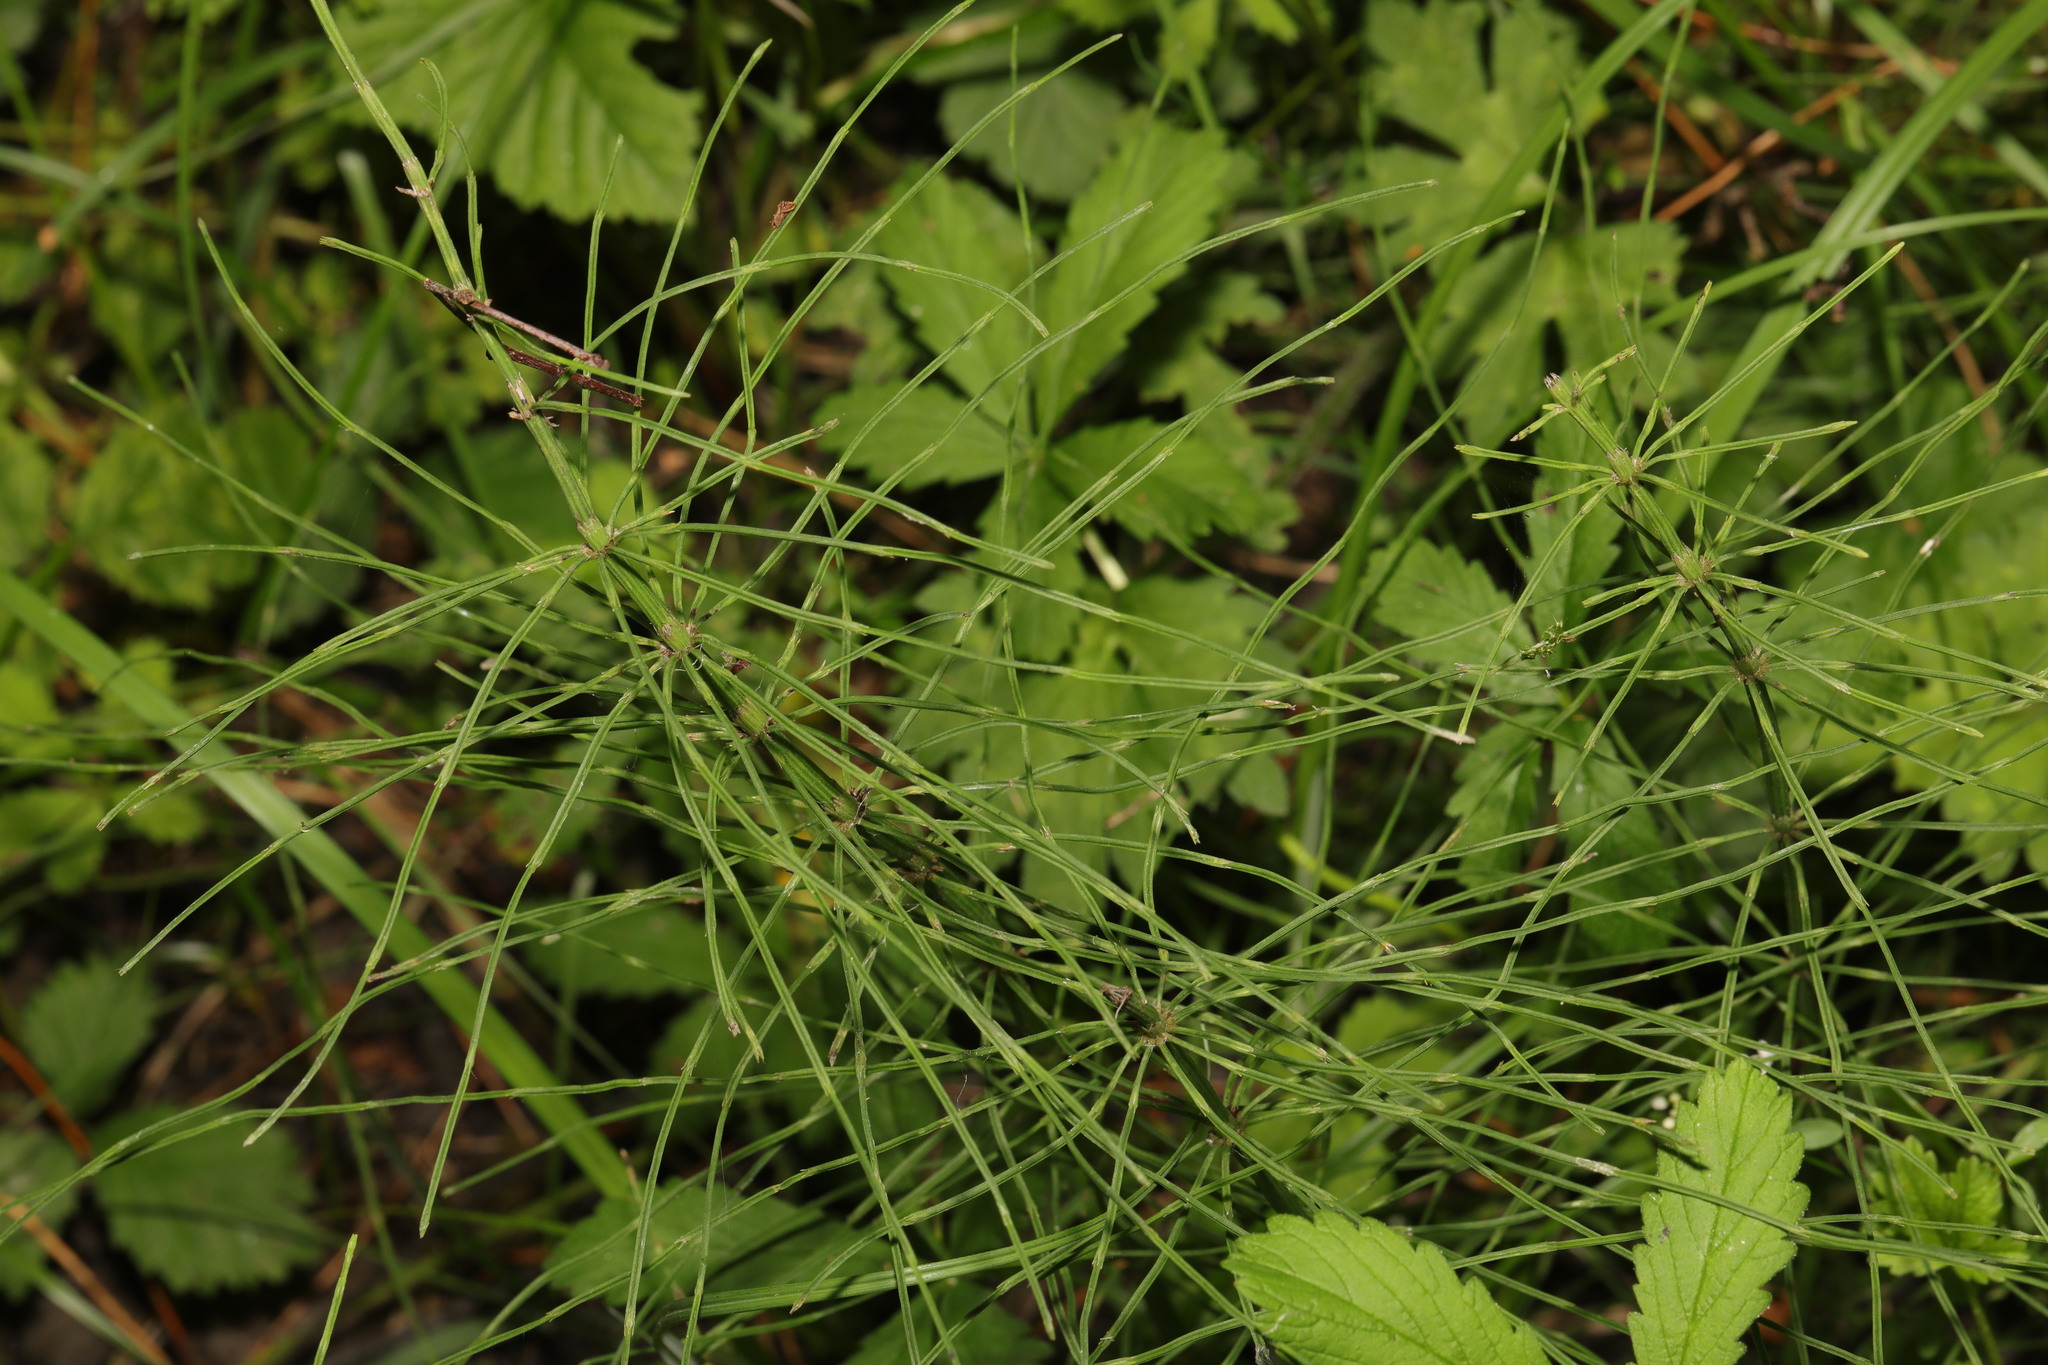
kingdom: Plantae
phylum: Tracheophyta
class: Polypodiopsida
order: Equisetales
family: Equisetaceae
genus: Equisetum
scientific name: Equisetum arvense
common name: Field horsetail
